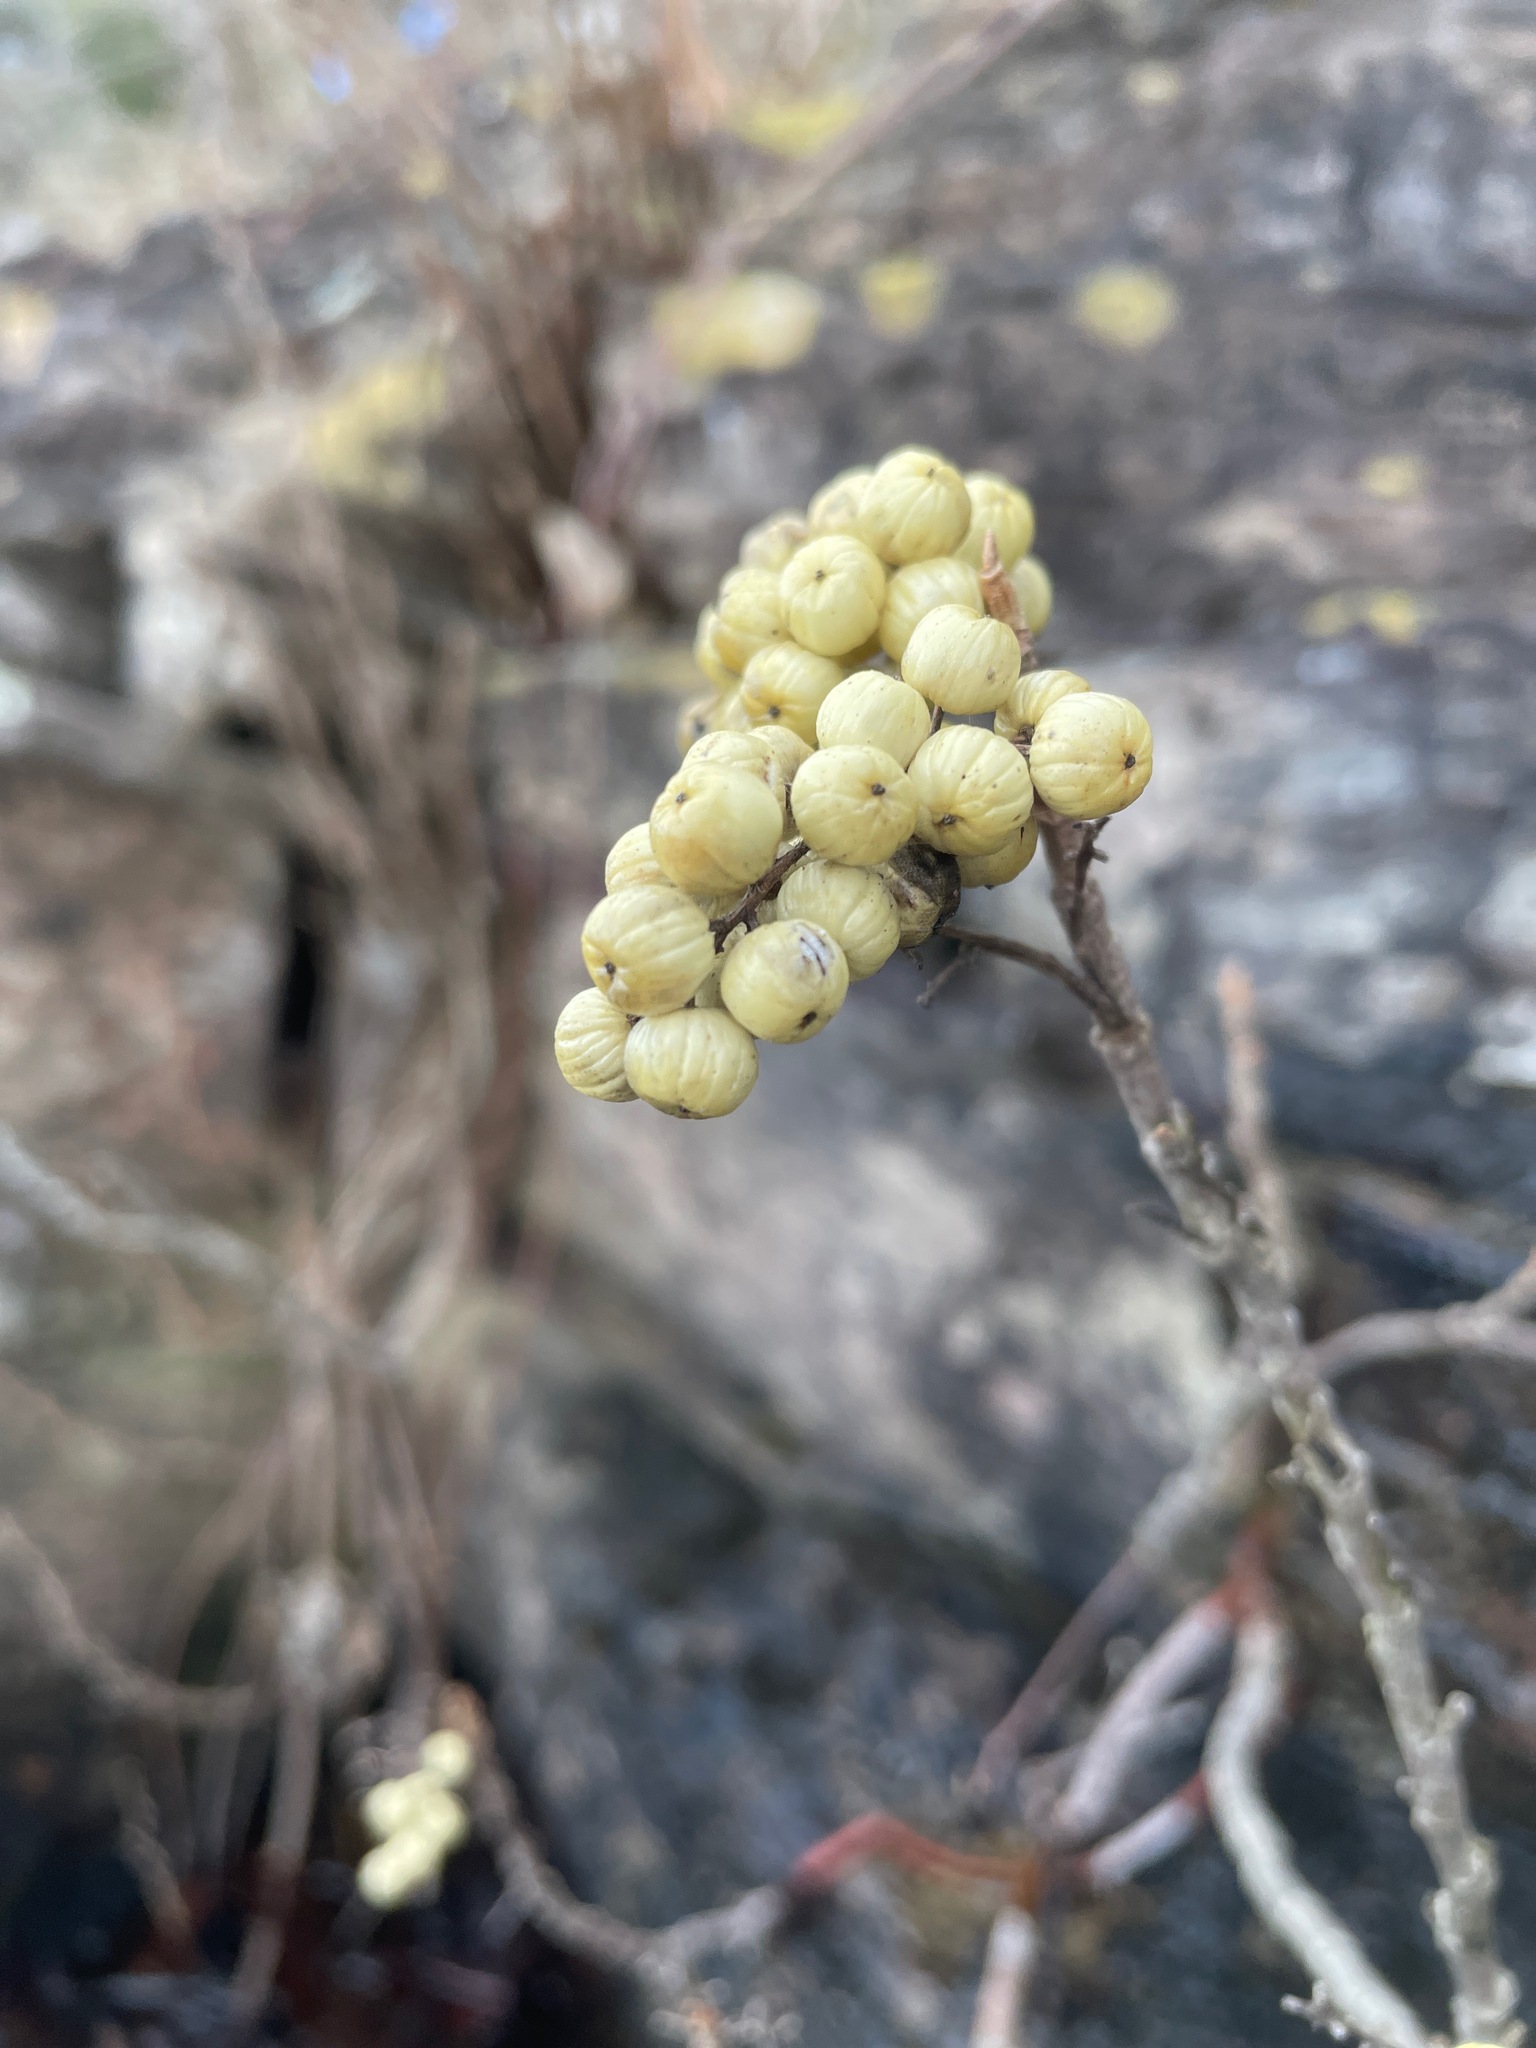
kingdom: Plantae
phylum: Tracheophyta
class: Magnoliopsida
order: Sapindales
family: Anacardiaceae
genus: Toxicodendron
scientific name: Toxicodendron rydbergii
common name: Rydberg's poison-ivy
